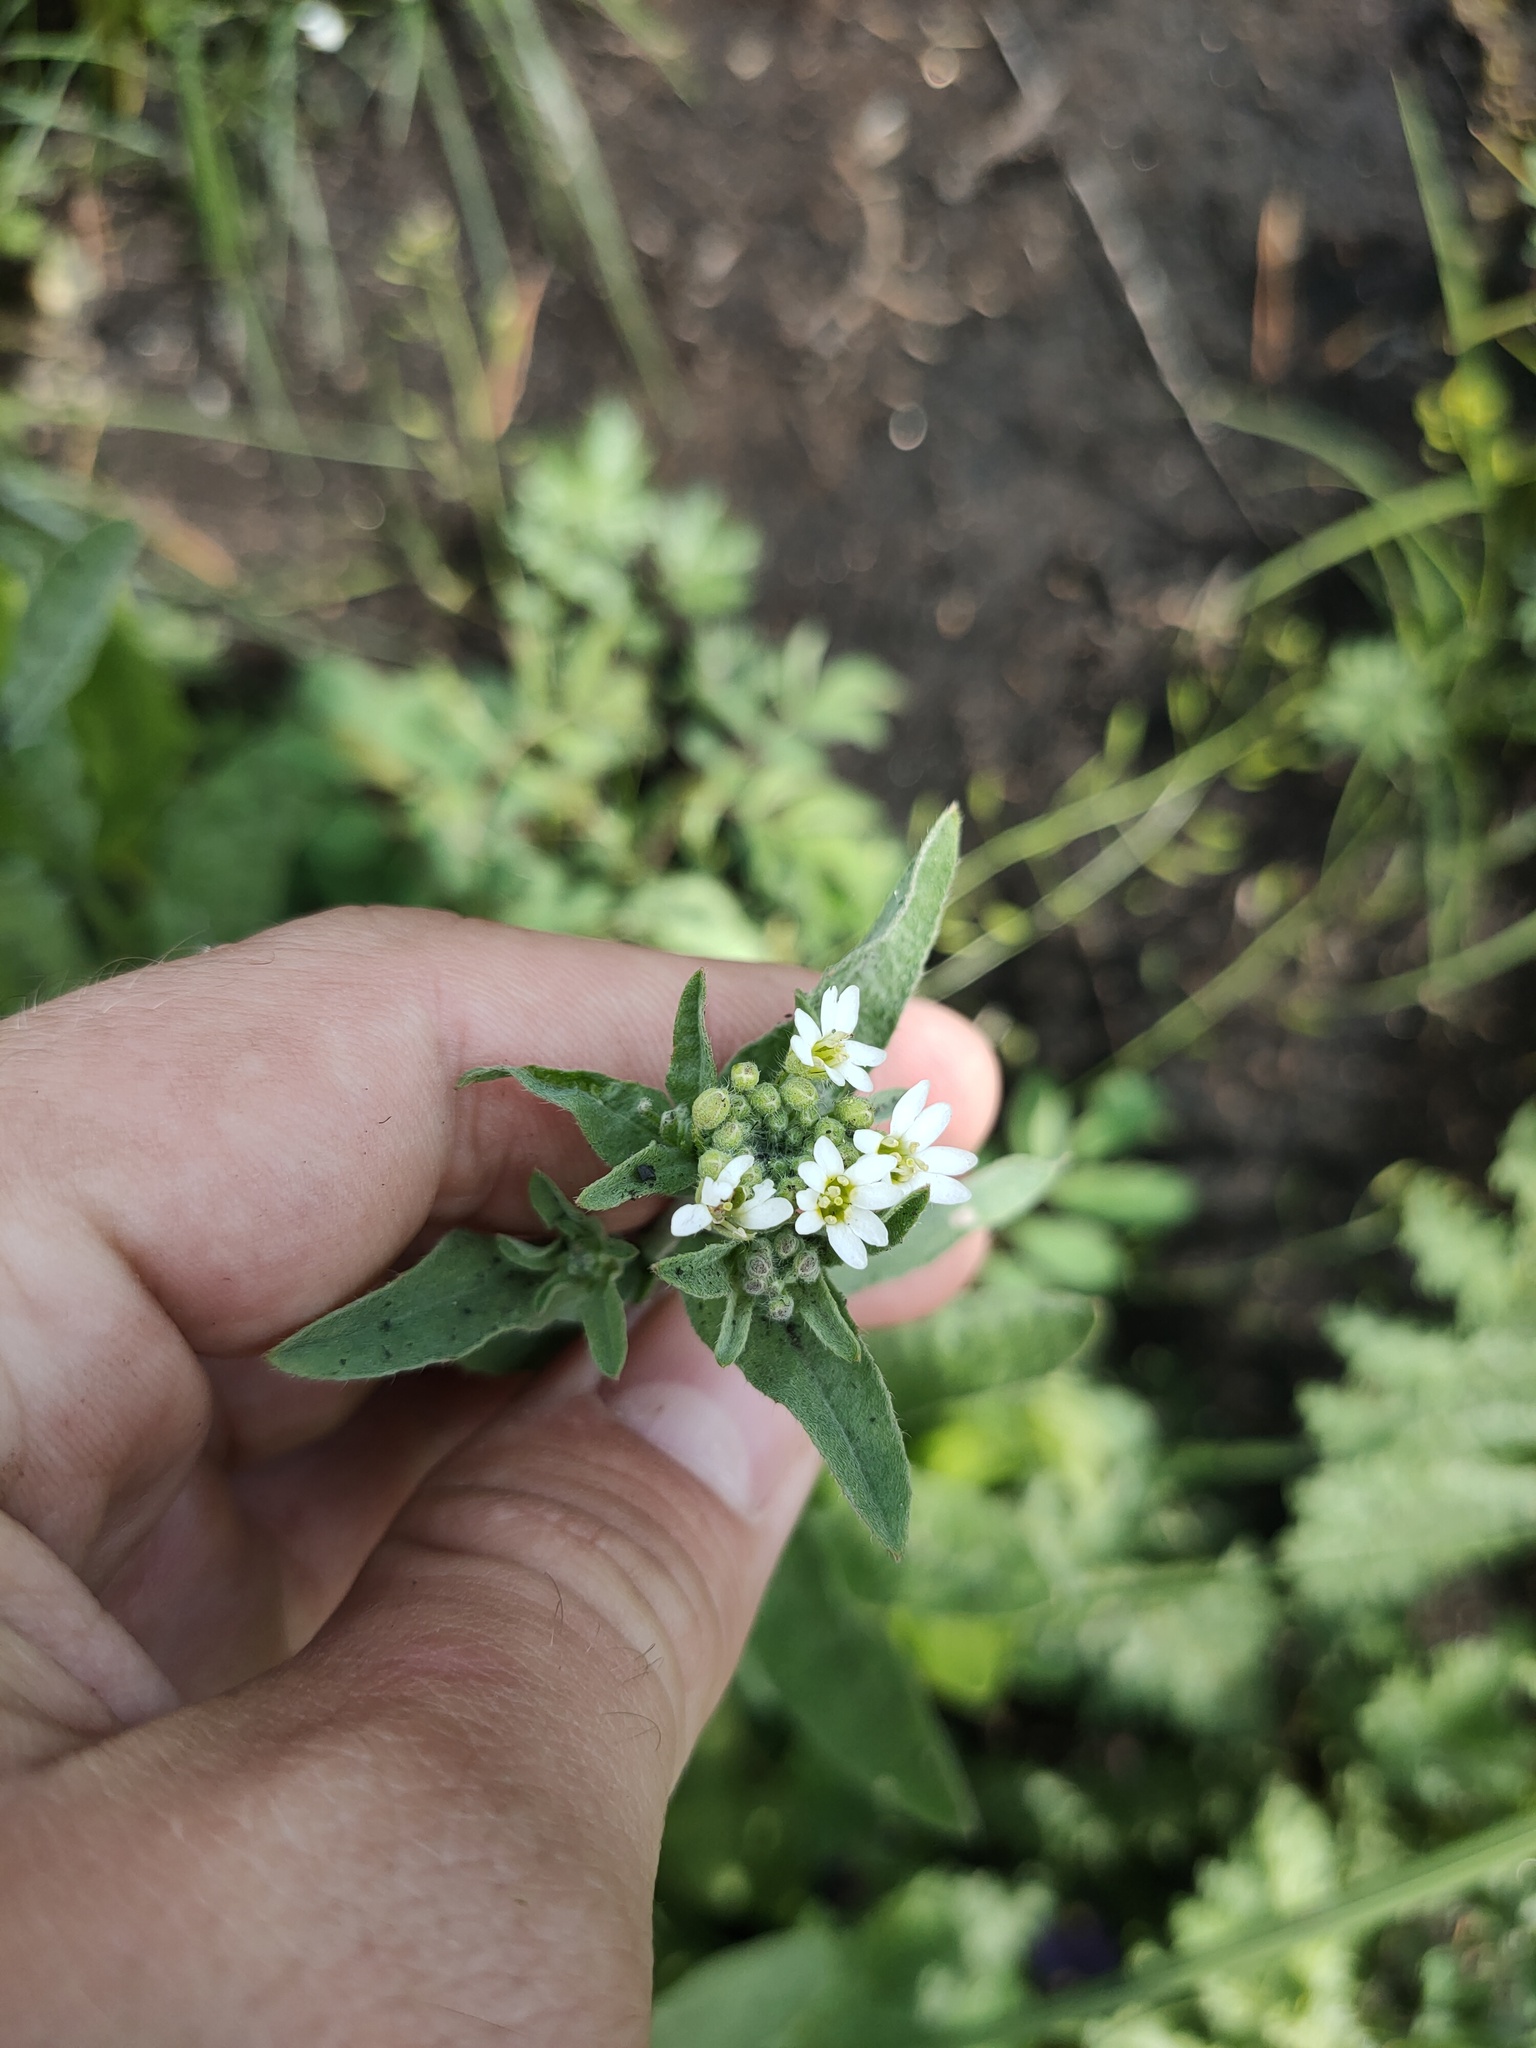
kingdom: Plantae
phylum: Tracheophyta
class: Magnoliopsida
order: Brassicales
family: Brassicaceae
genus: Berteroa
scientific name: Berteroa incana
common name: Hoary alison
